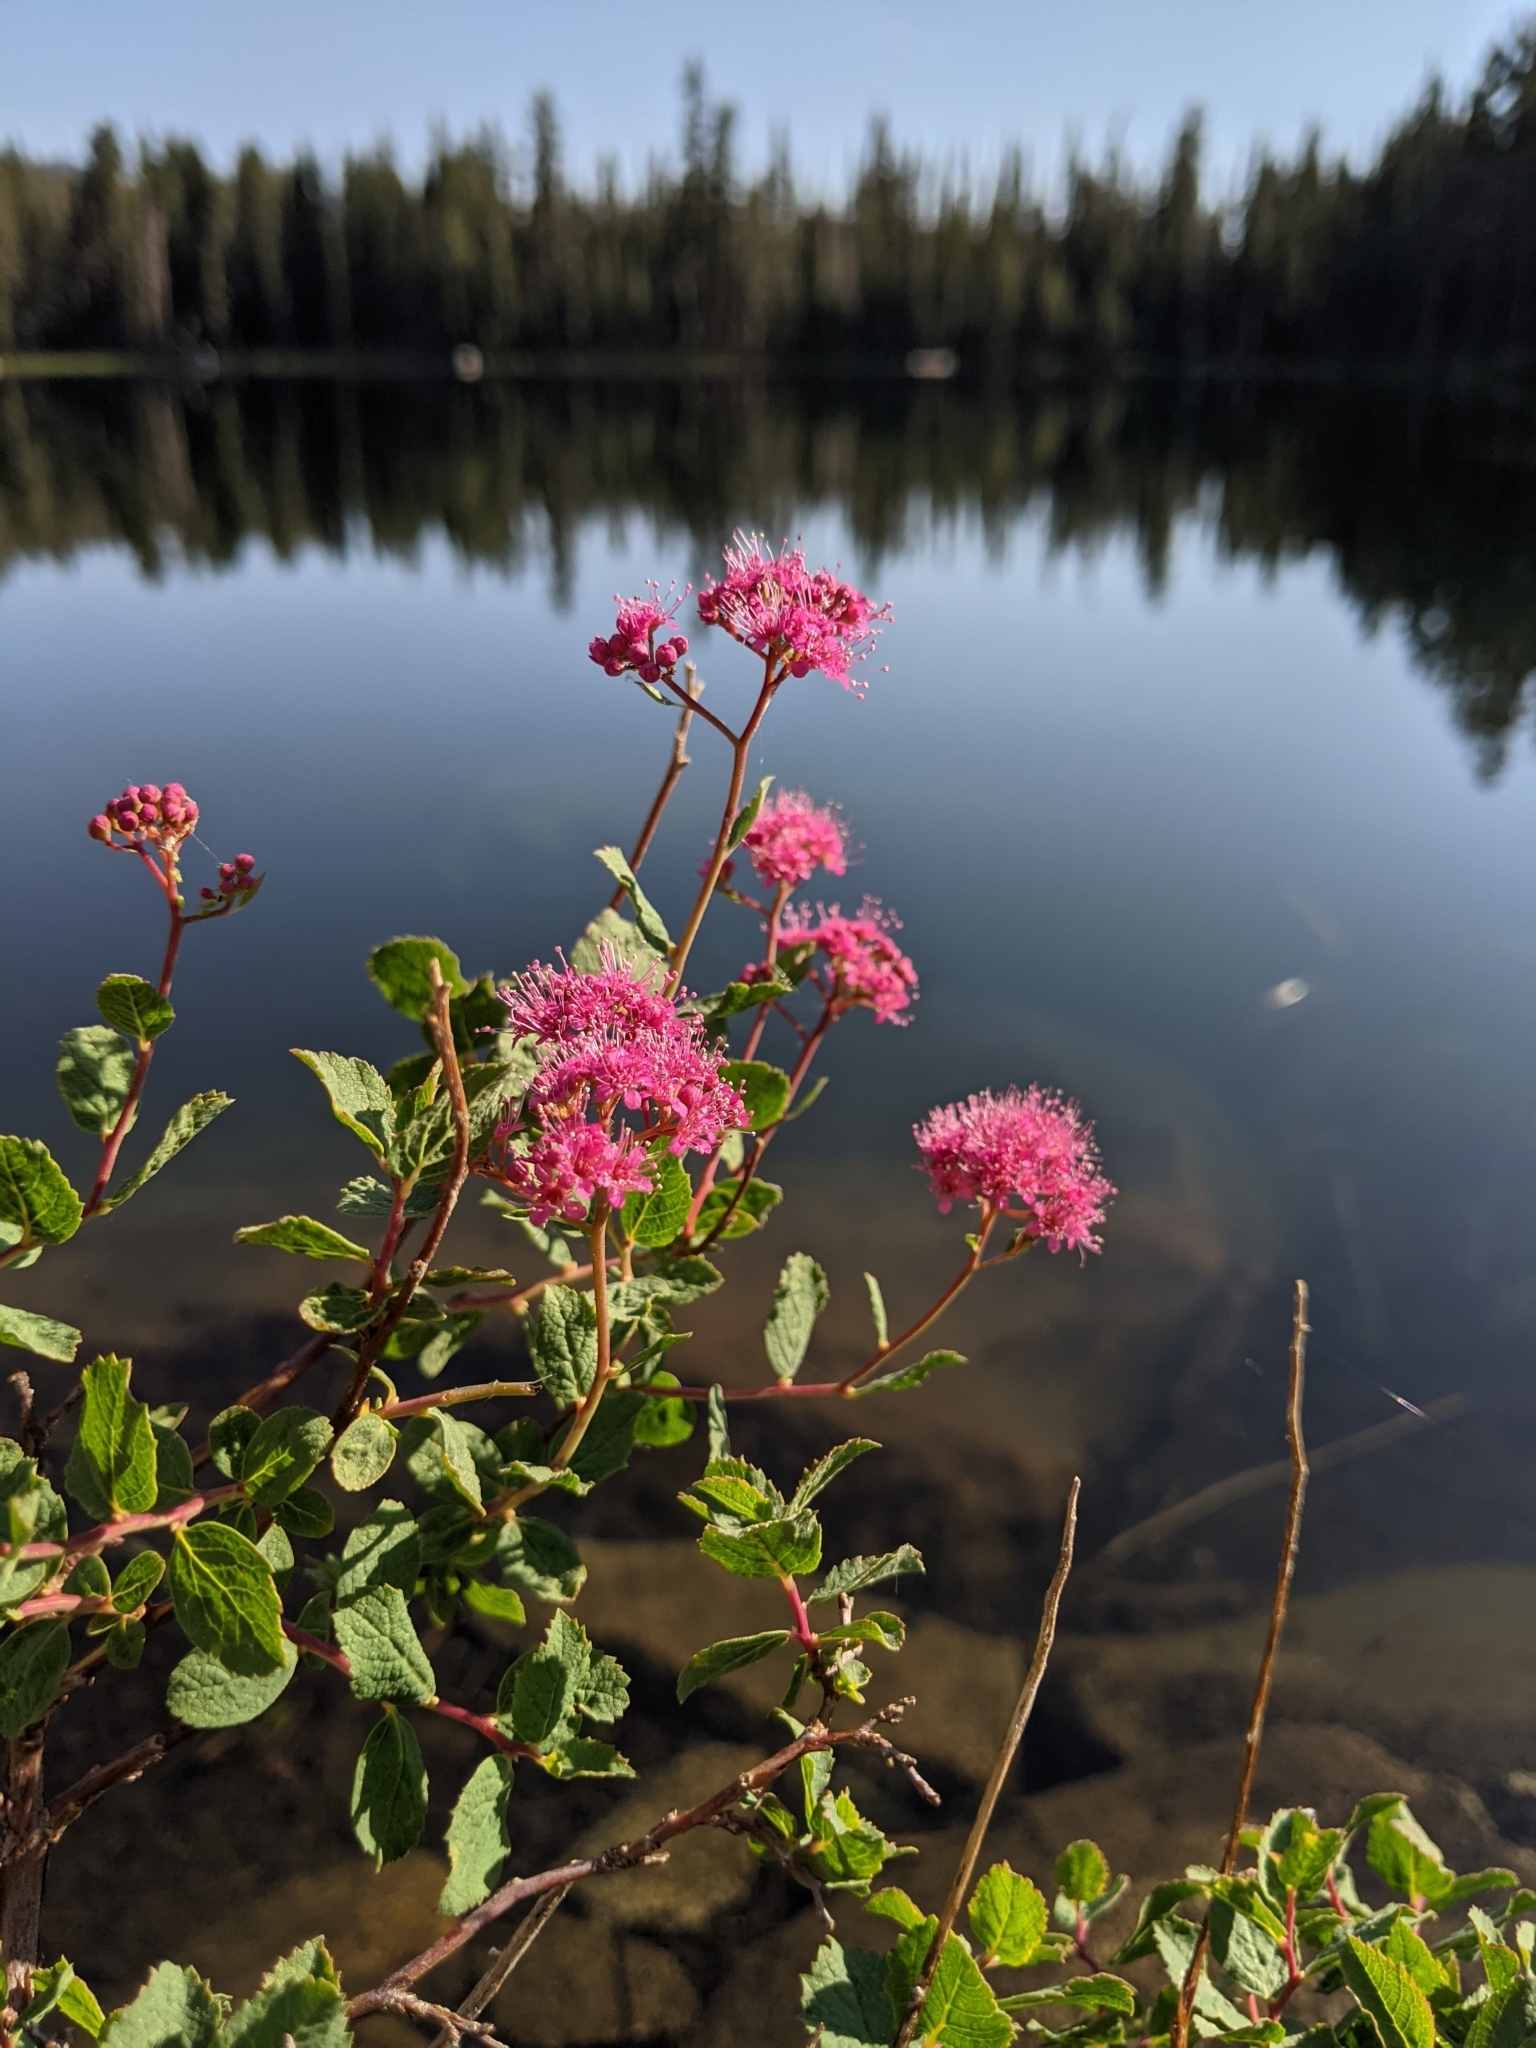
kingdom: Plantae
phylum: Tracheophyta
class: Magnoliopsida
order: Rosales
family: Rosaceae
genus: Spiraea
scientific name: Spiraea splendens
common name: Subalpine meadowsweet
